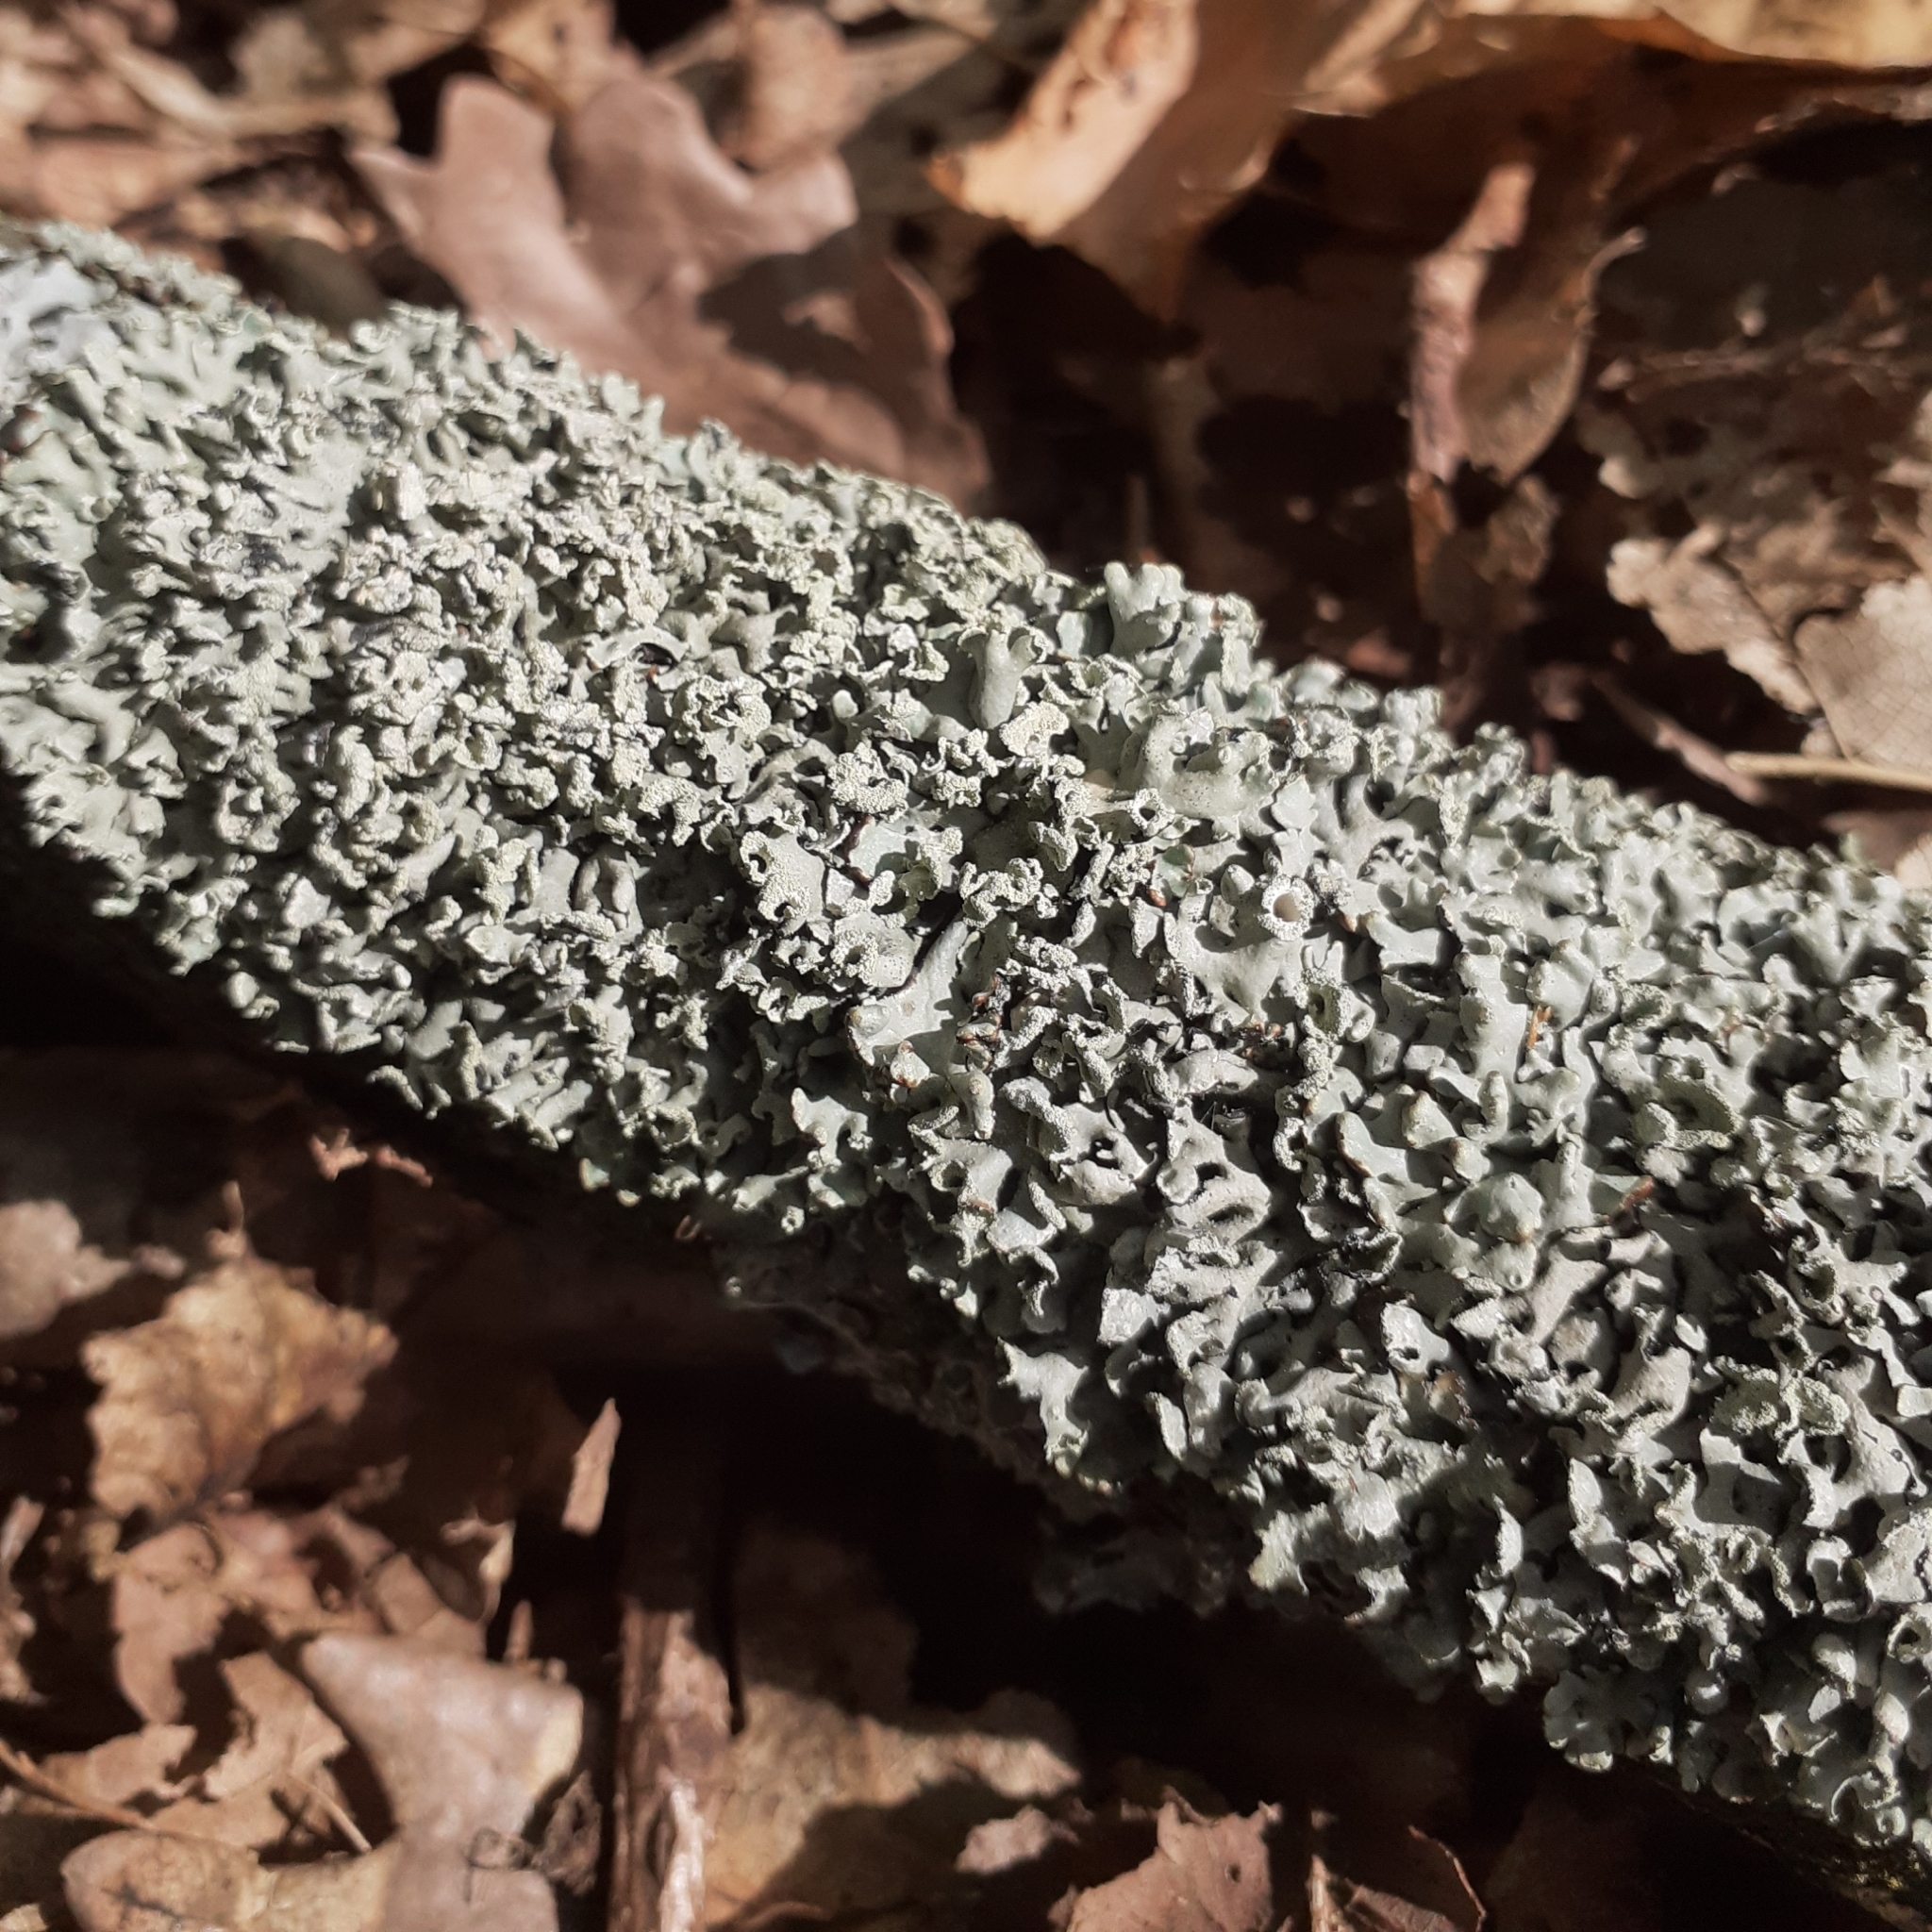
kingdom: Fungi
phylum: Ascomycota
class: Lecanoromycetes
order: Lecanorales
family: Parmeliaceae
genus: Hypogymnia
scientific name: Hypogymnia physodes
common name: Dark crottle
